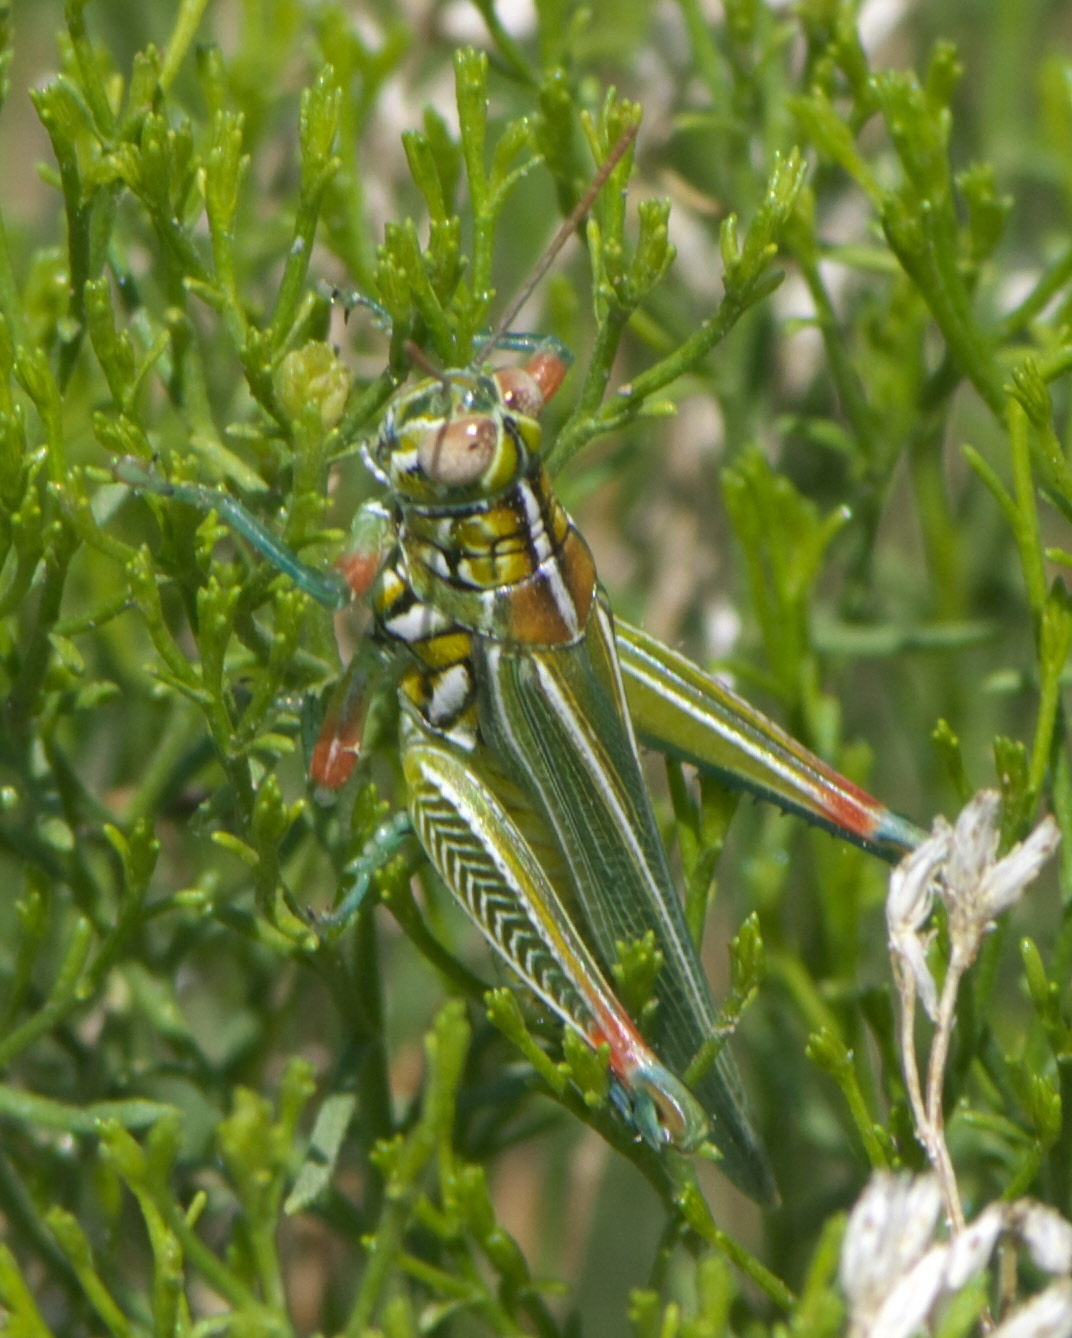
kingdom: Animalia
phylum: Arthropoda
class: Insecta
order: Orthoptera
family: Acrididae
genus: Hesperotettix
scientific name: Hesperotettix viridis
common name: Meadow purple-striped grasshopper
